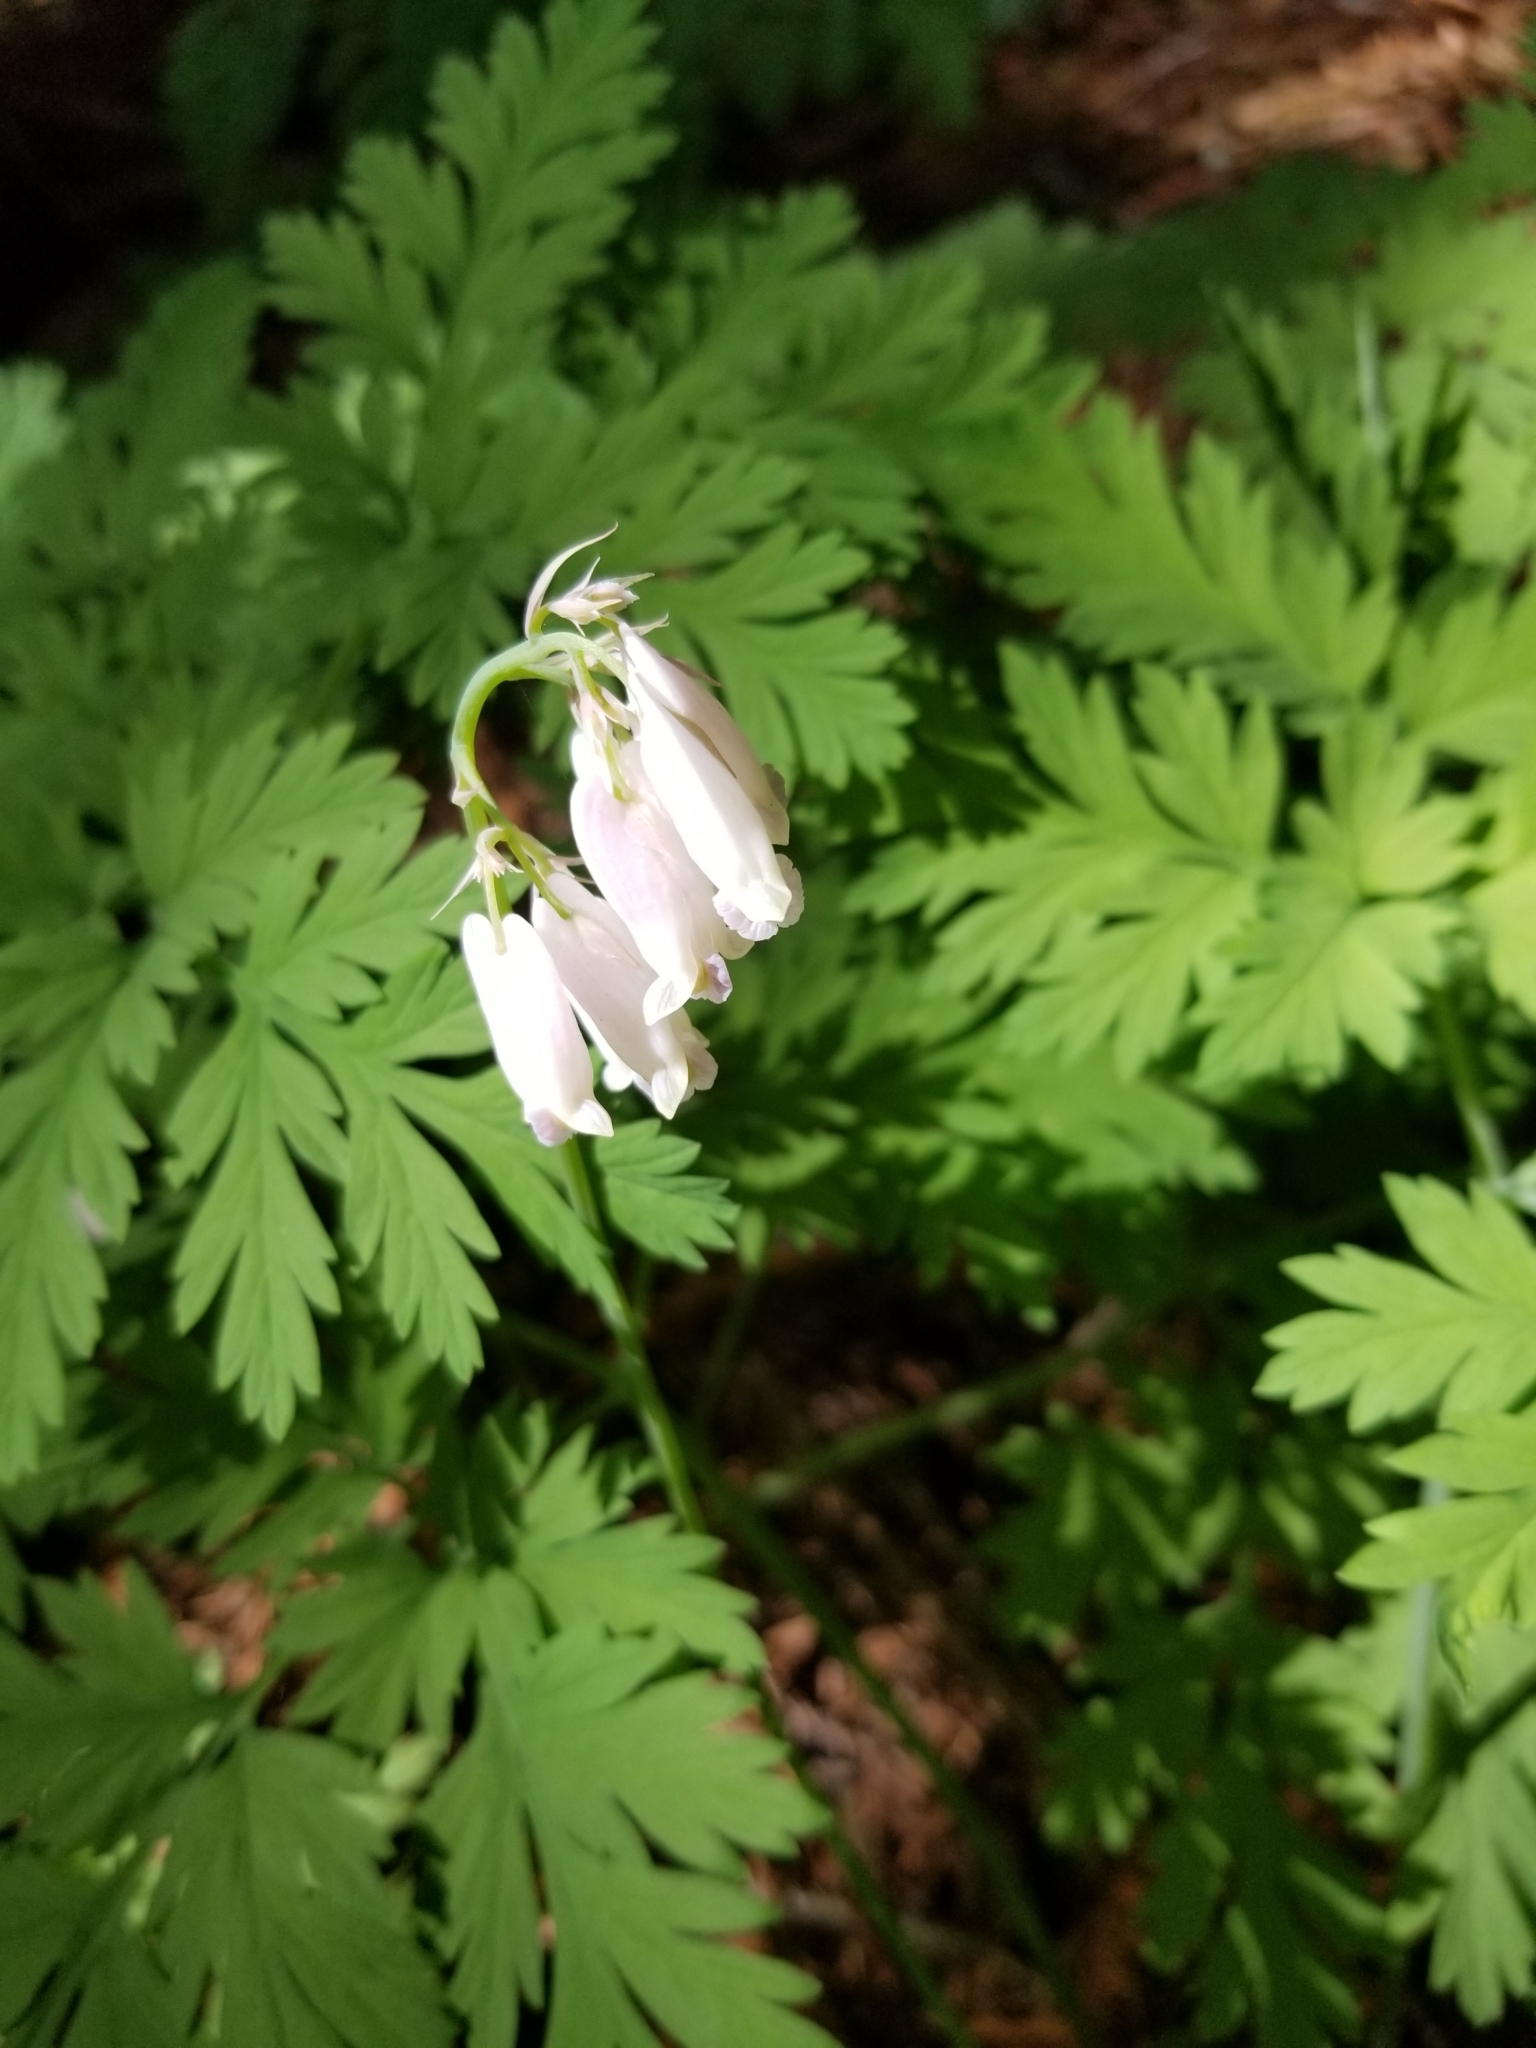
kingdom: Plantae
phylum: Tracheophyta
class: Magnoliopsida
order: Ranunculales
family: Papaveraceae
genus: Dicentra
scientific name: Dicentra formosa
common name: Bleeding-heart
